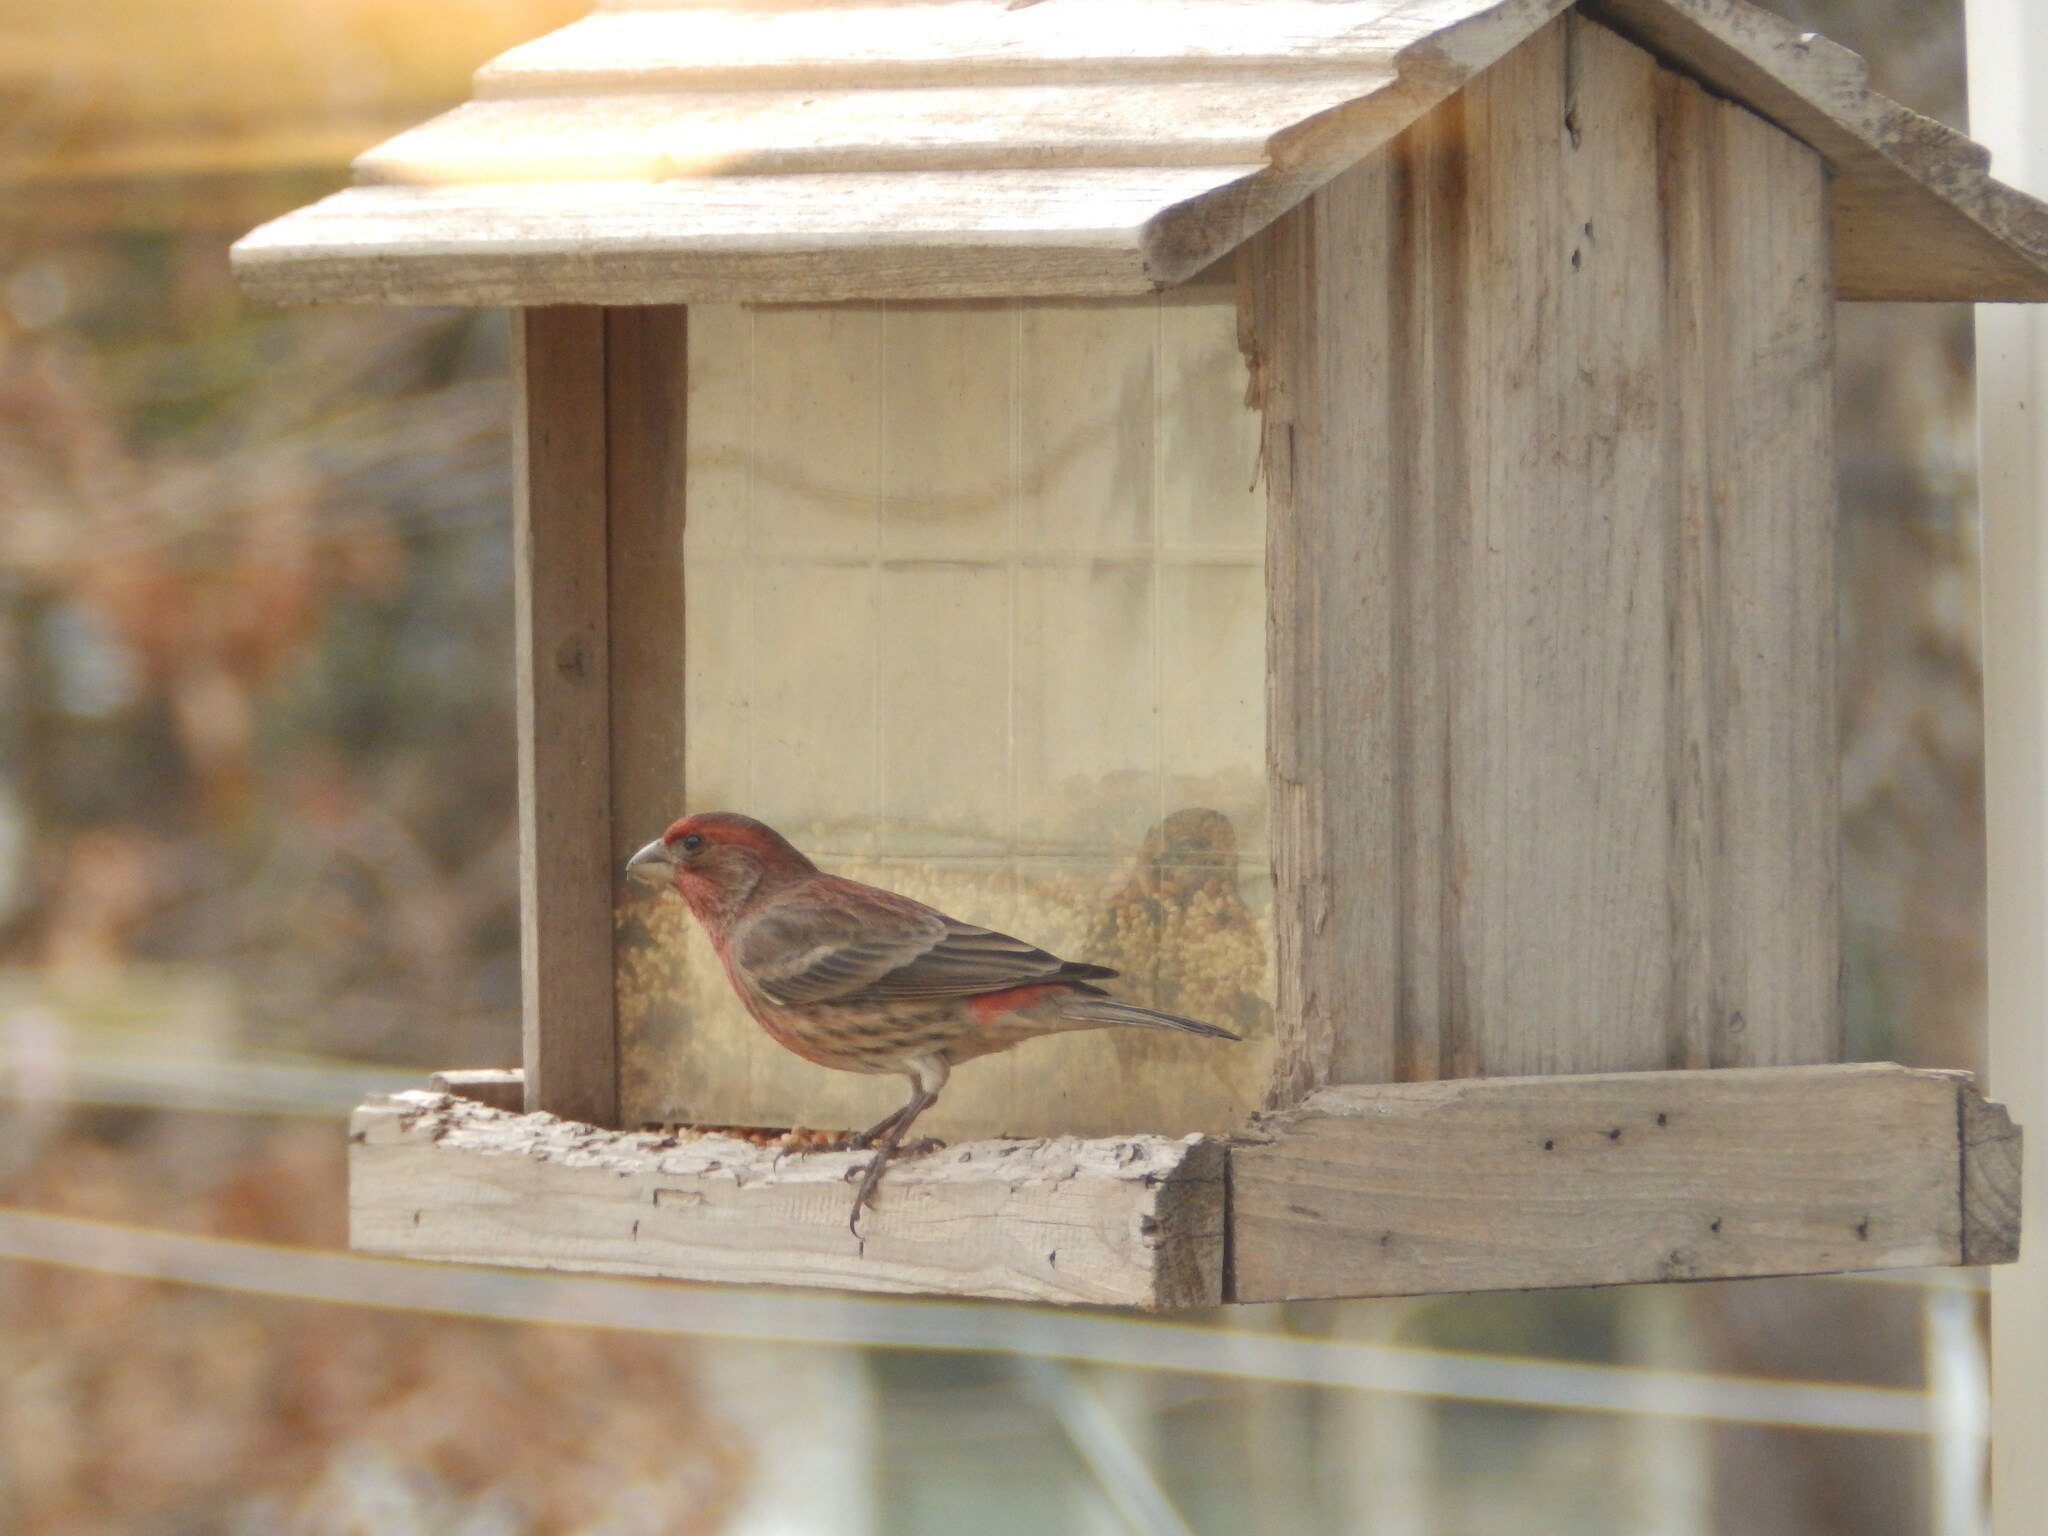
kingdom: Animalia
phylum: Chordata
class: Aves
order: Passeriformes
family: Fringillidae
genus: Haemorhous
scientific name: Haemorhous mexicanus
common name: House finch
